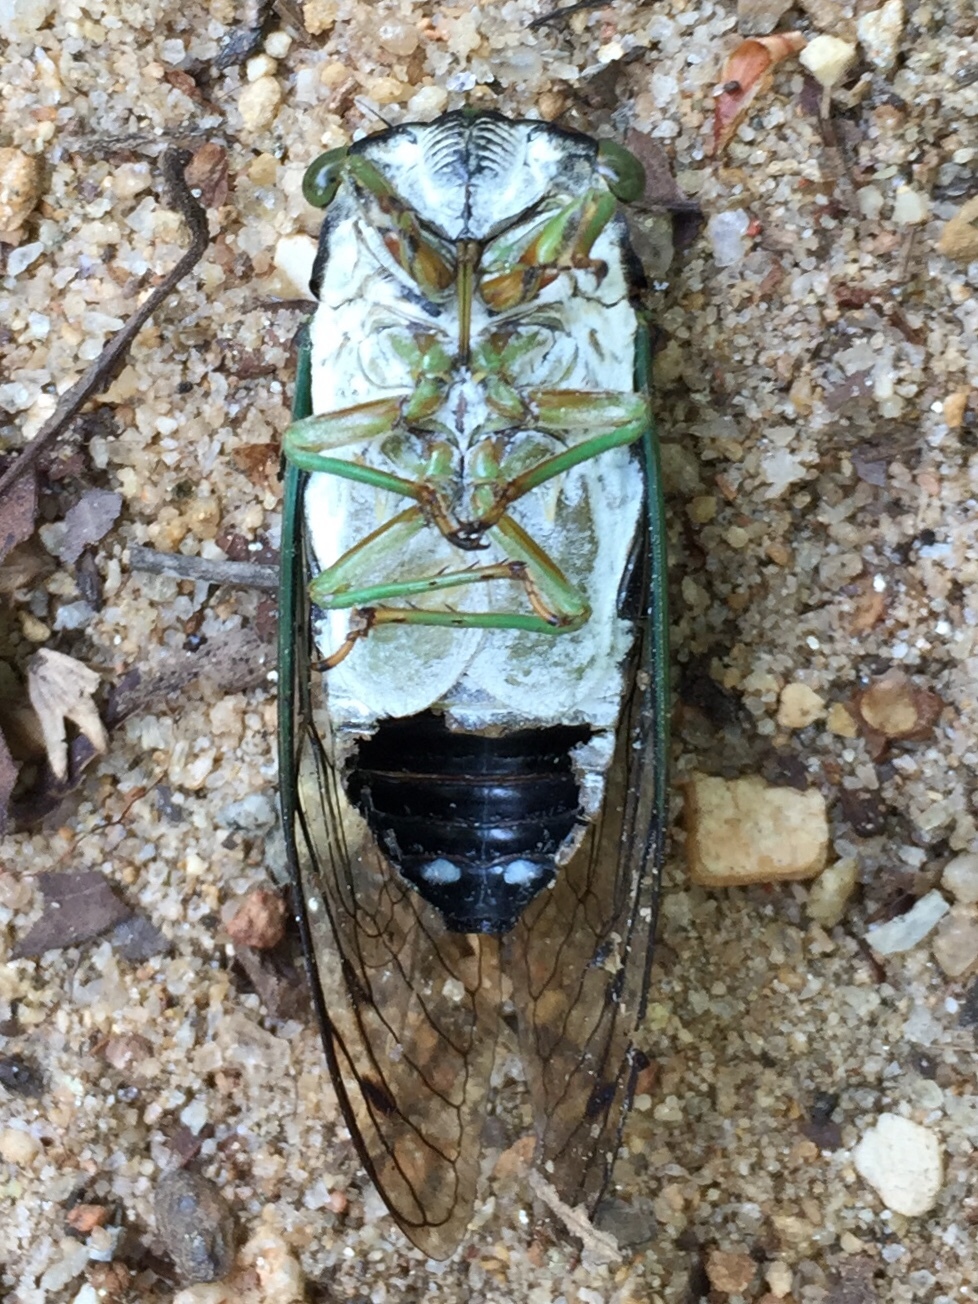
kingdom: Animalia
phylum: Arthropoda
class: Insecta
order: Hemiptera
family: Cicadidae
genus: Neotibicen
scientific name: Neotibicen tibicen
